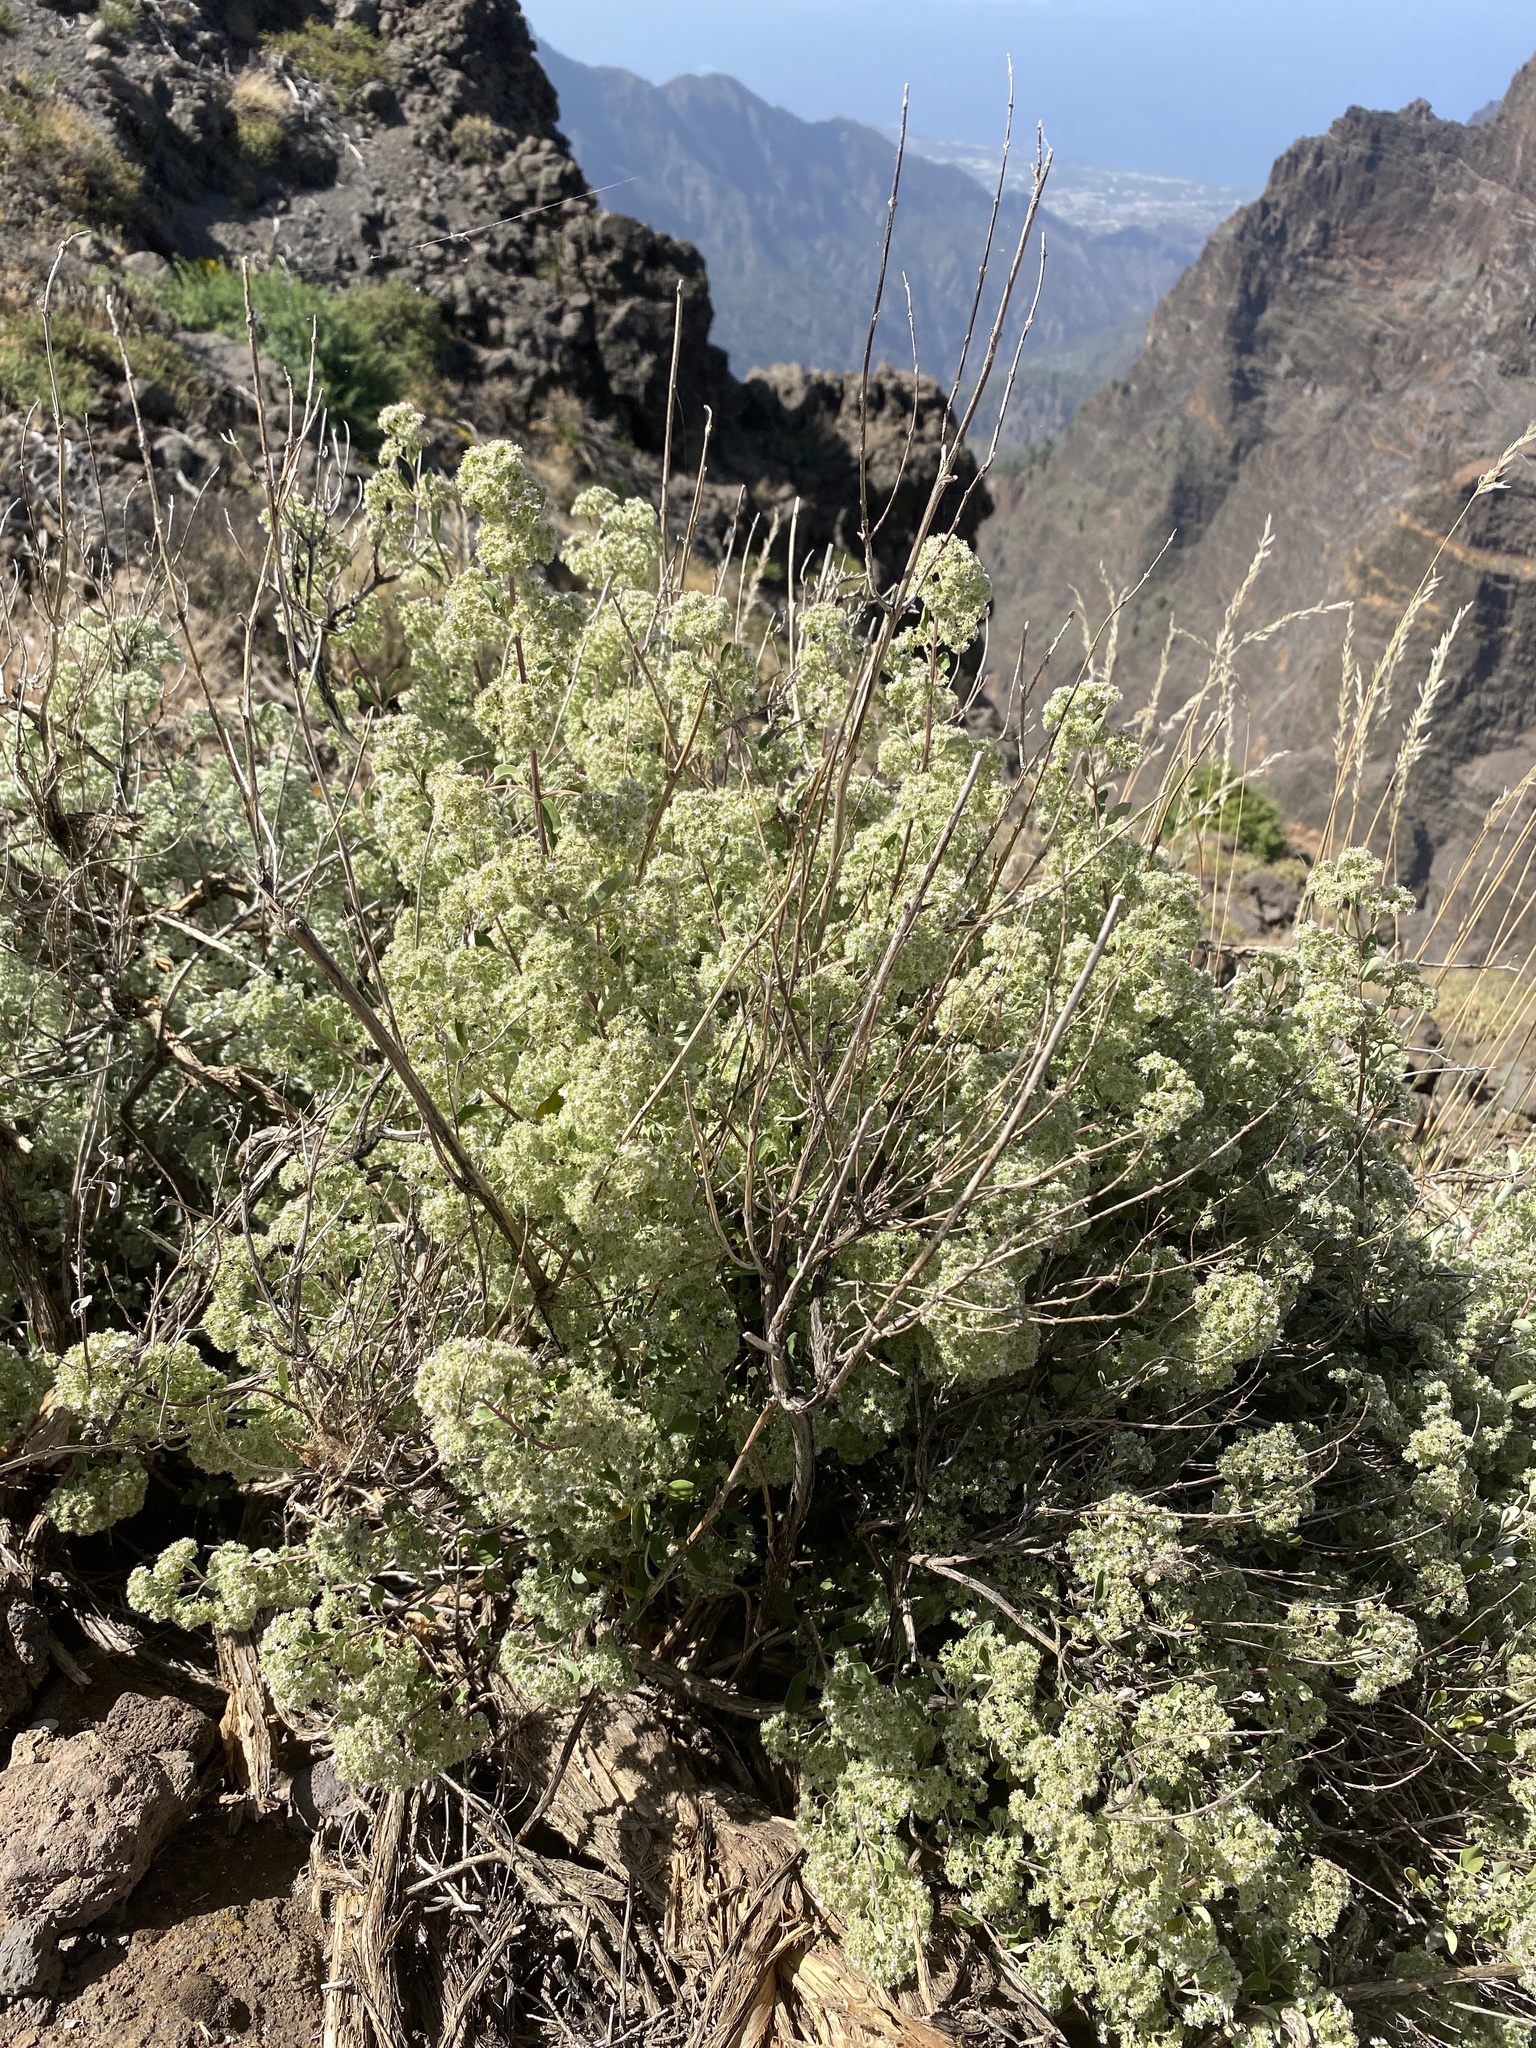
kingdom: Plantae
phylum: Tracheophyta
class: Magnoliopsida
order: Lamiales
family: Lamiaceae
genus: Bystropogon
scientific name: Bystropogon origanifolius
